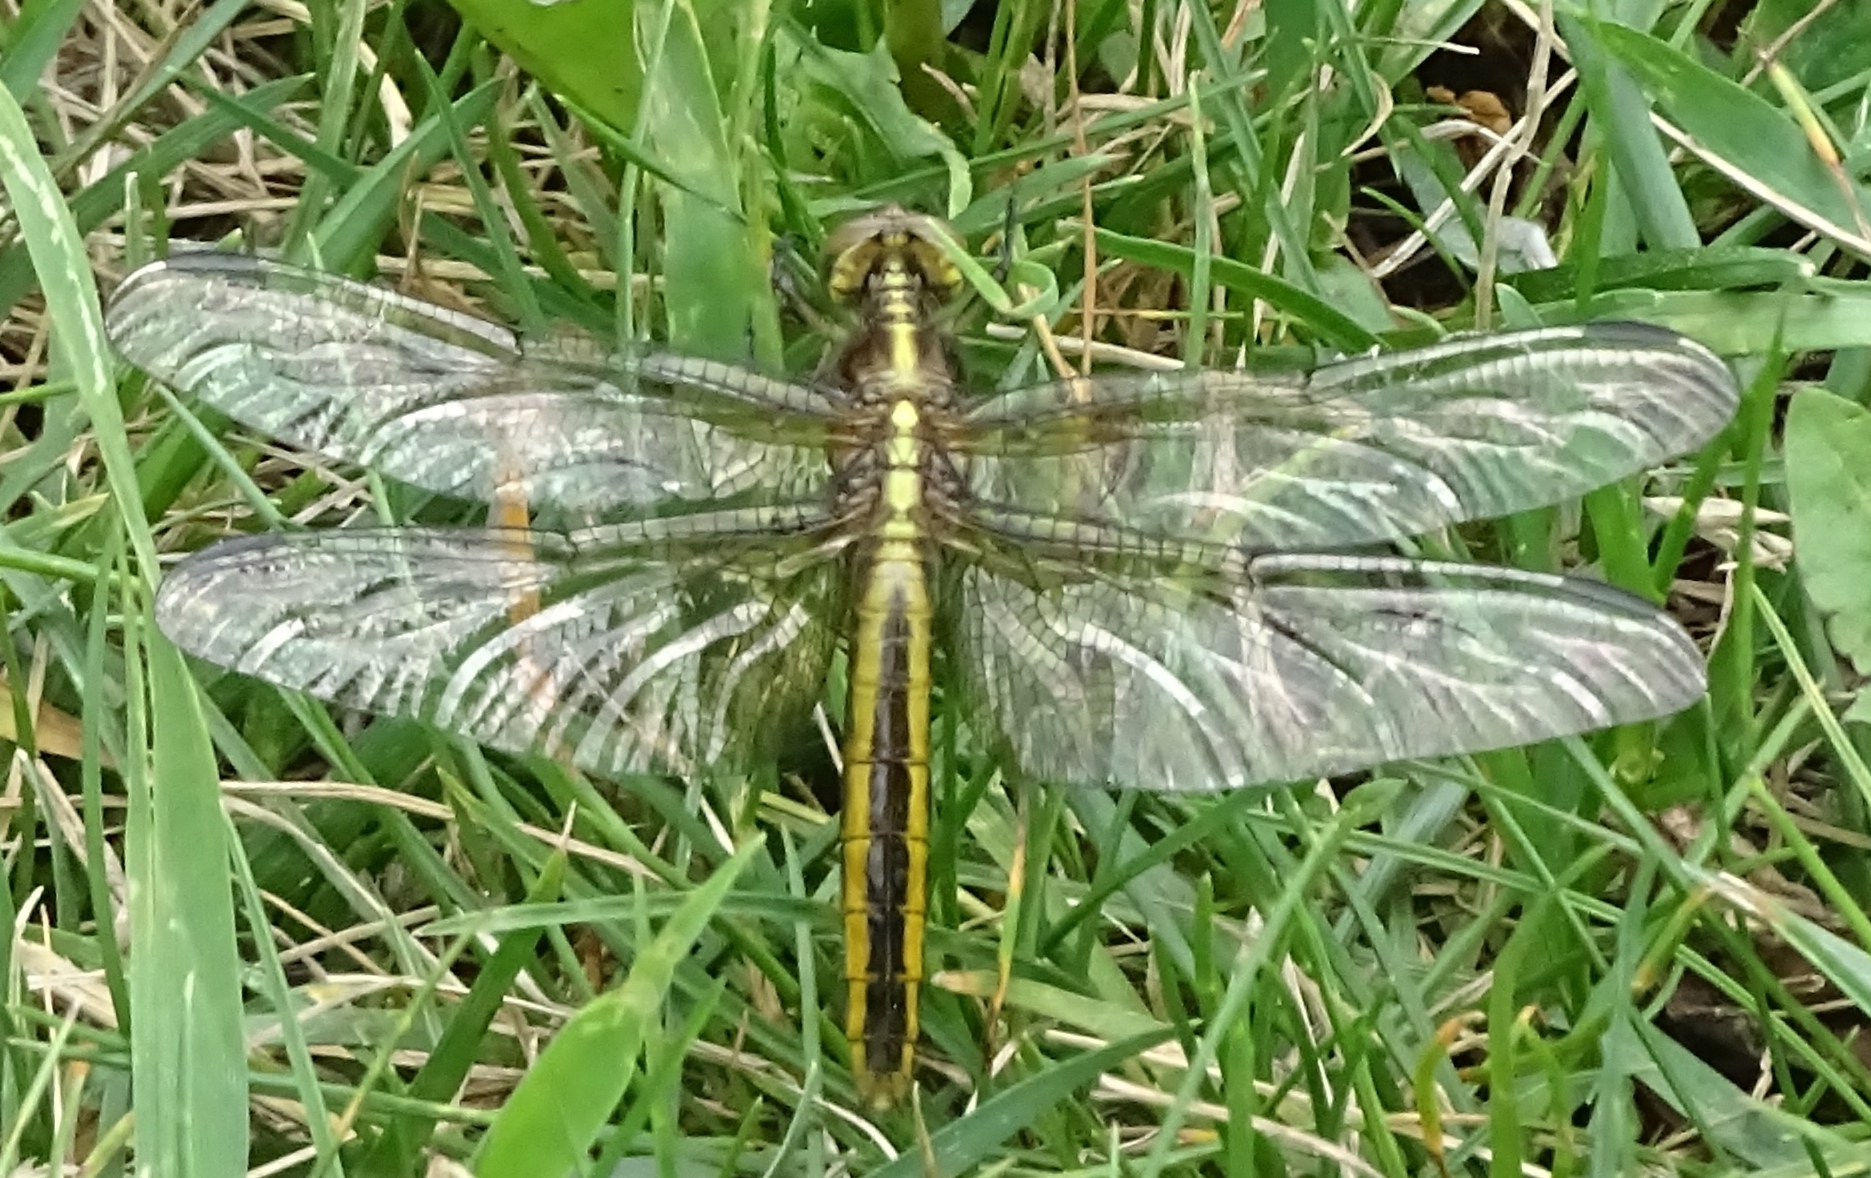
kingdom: Animalia
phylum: Arthropoda
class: Insecta
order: Odonata
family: Libellulidae
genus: Libellula
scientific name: Libellula luctuosa
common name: Widow skimmer
